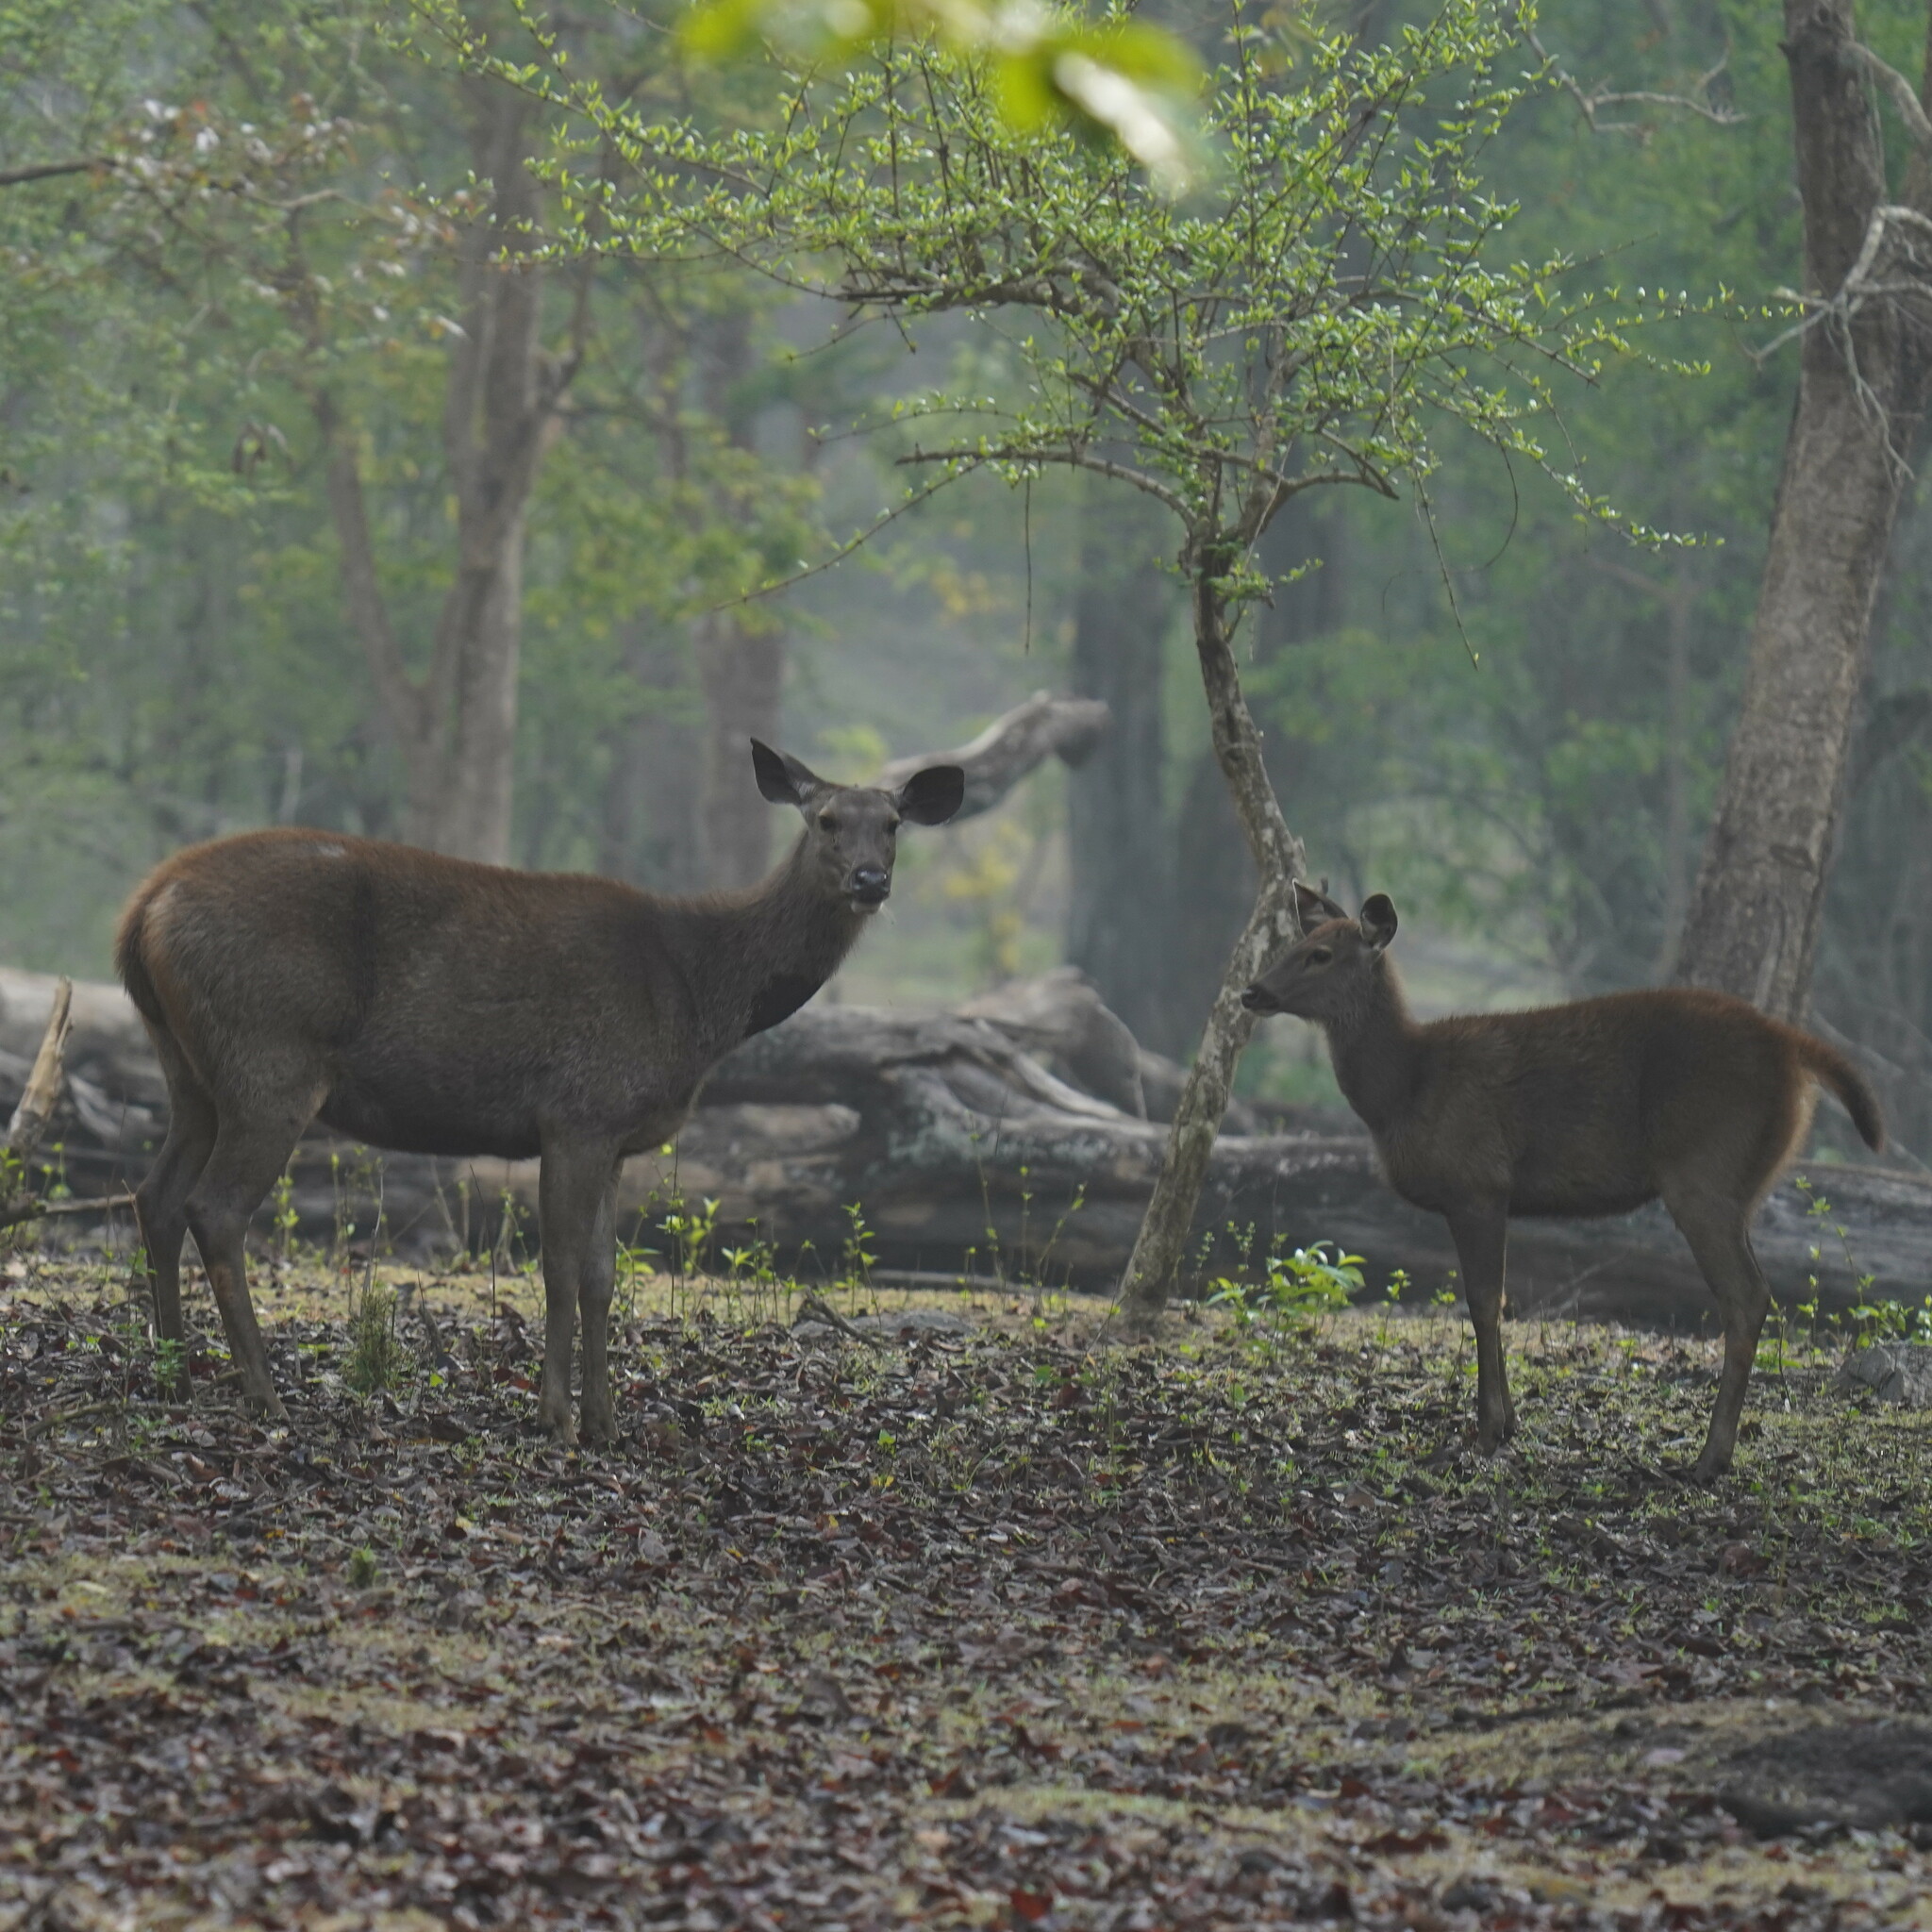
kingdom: Animalia
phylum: Chordata
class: Mammalia
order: Artiodactyla
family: Cervidae
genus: Rusa
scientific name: Rusa unicolor
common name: Sambar
